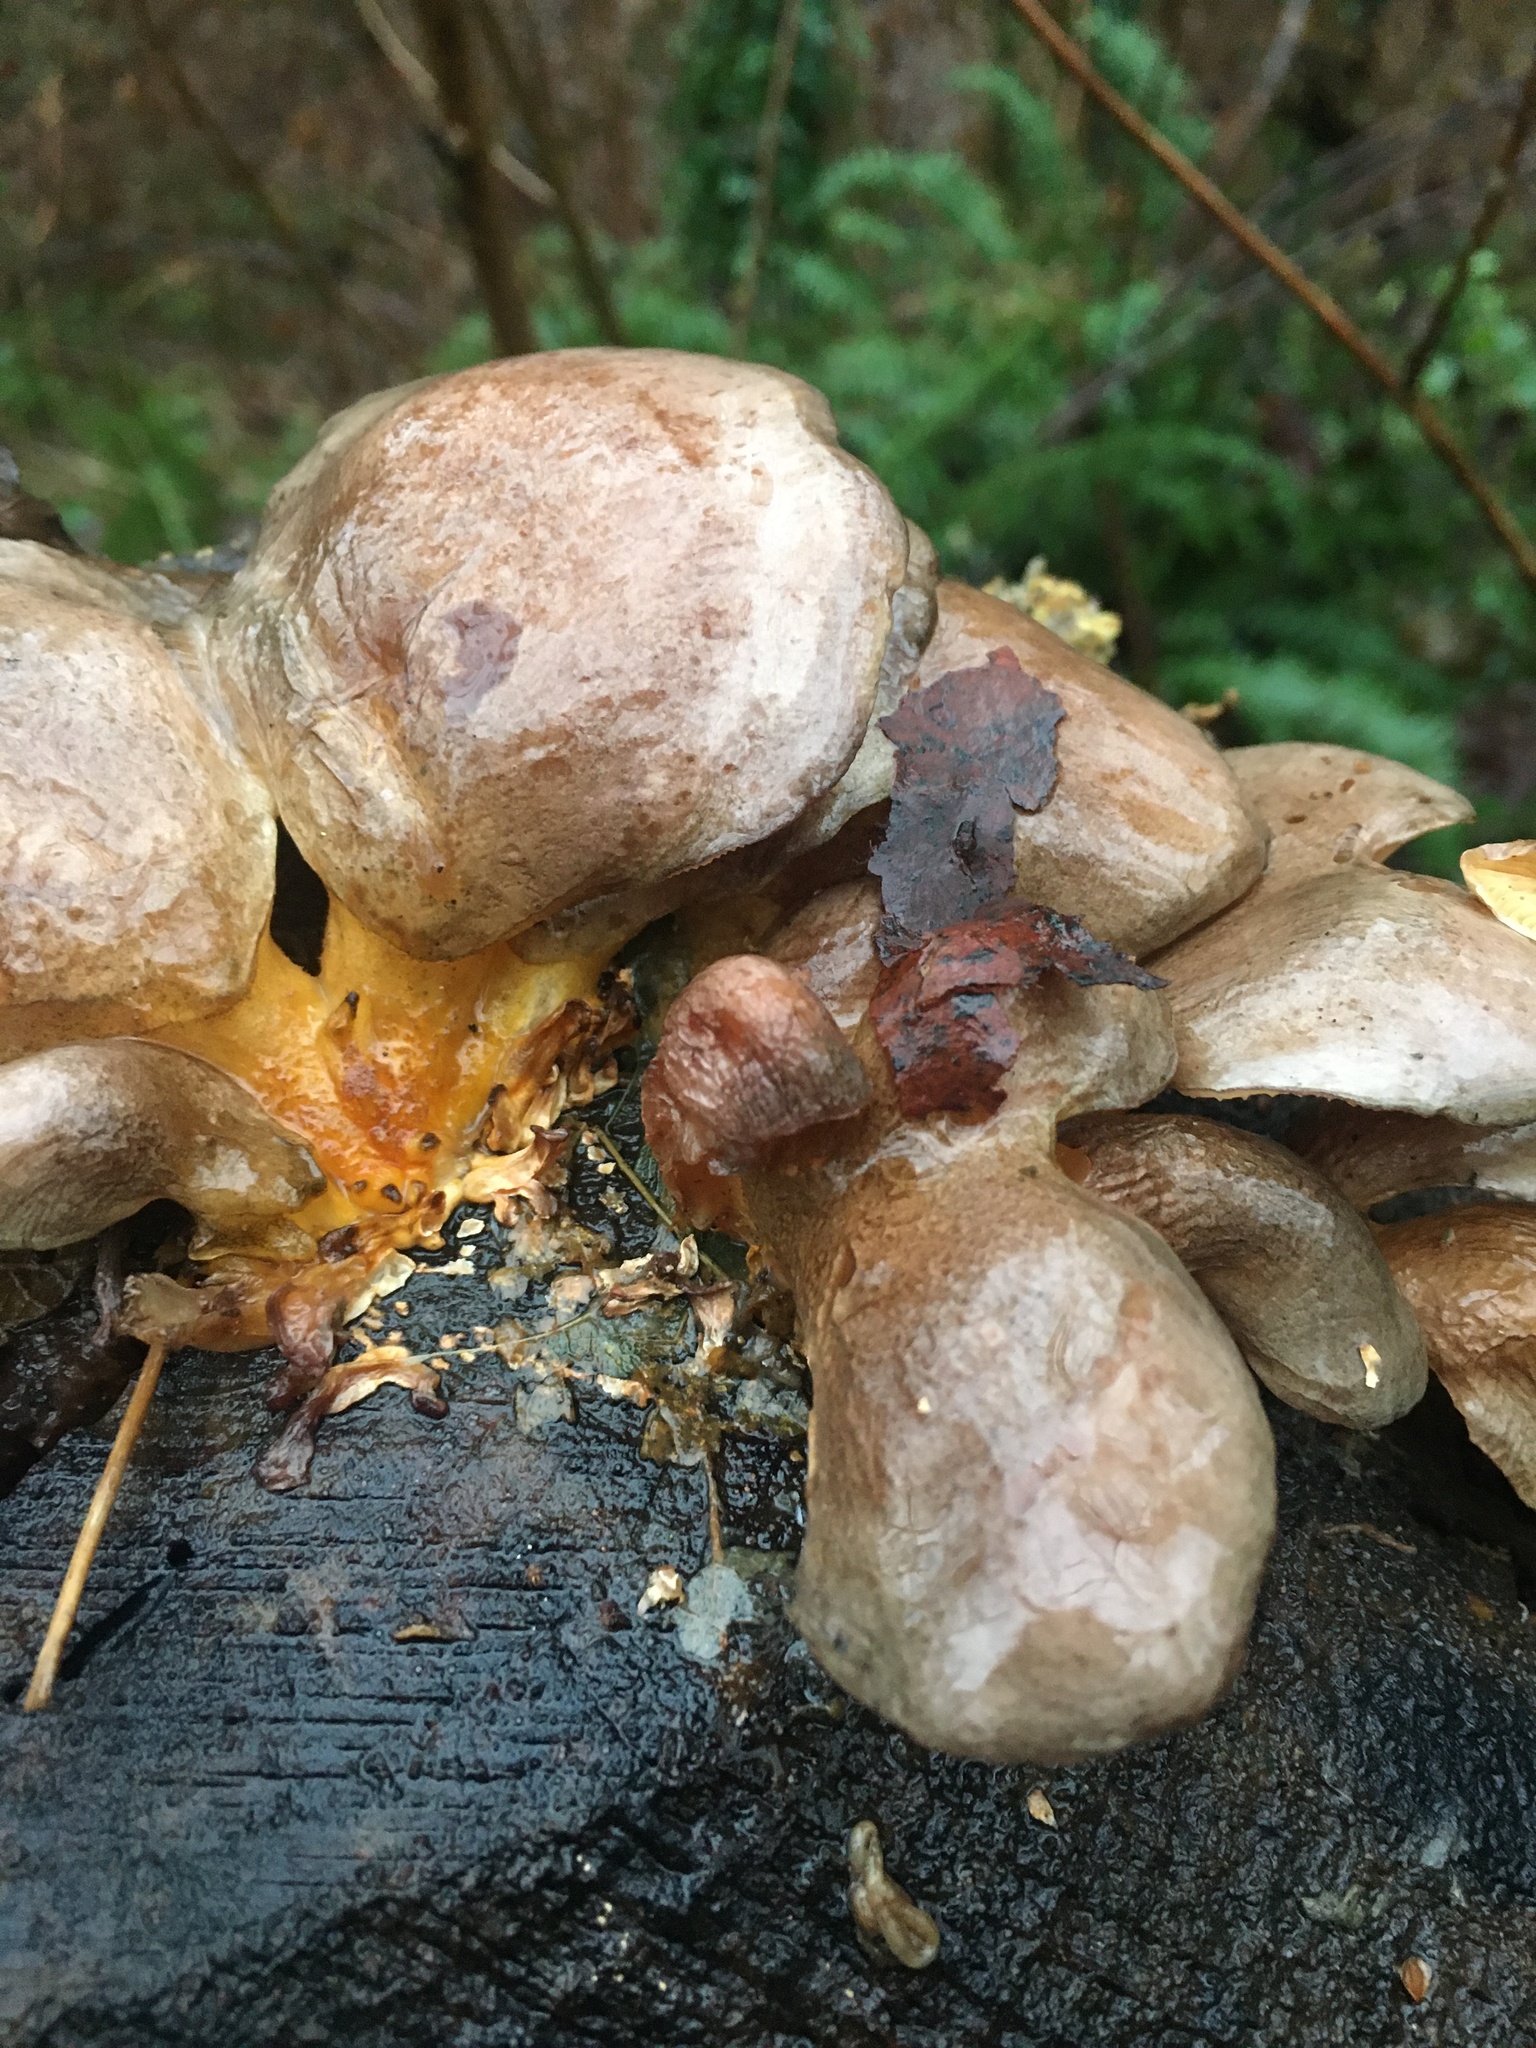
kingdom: Fungi
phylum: Basidiomycota
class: Agaricomycetes
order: Agaricales
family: Sarcomyxaceae
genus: Sarcomyxa
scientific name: Sarcomyxa serotina
